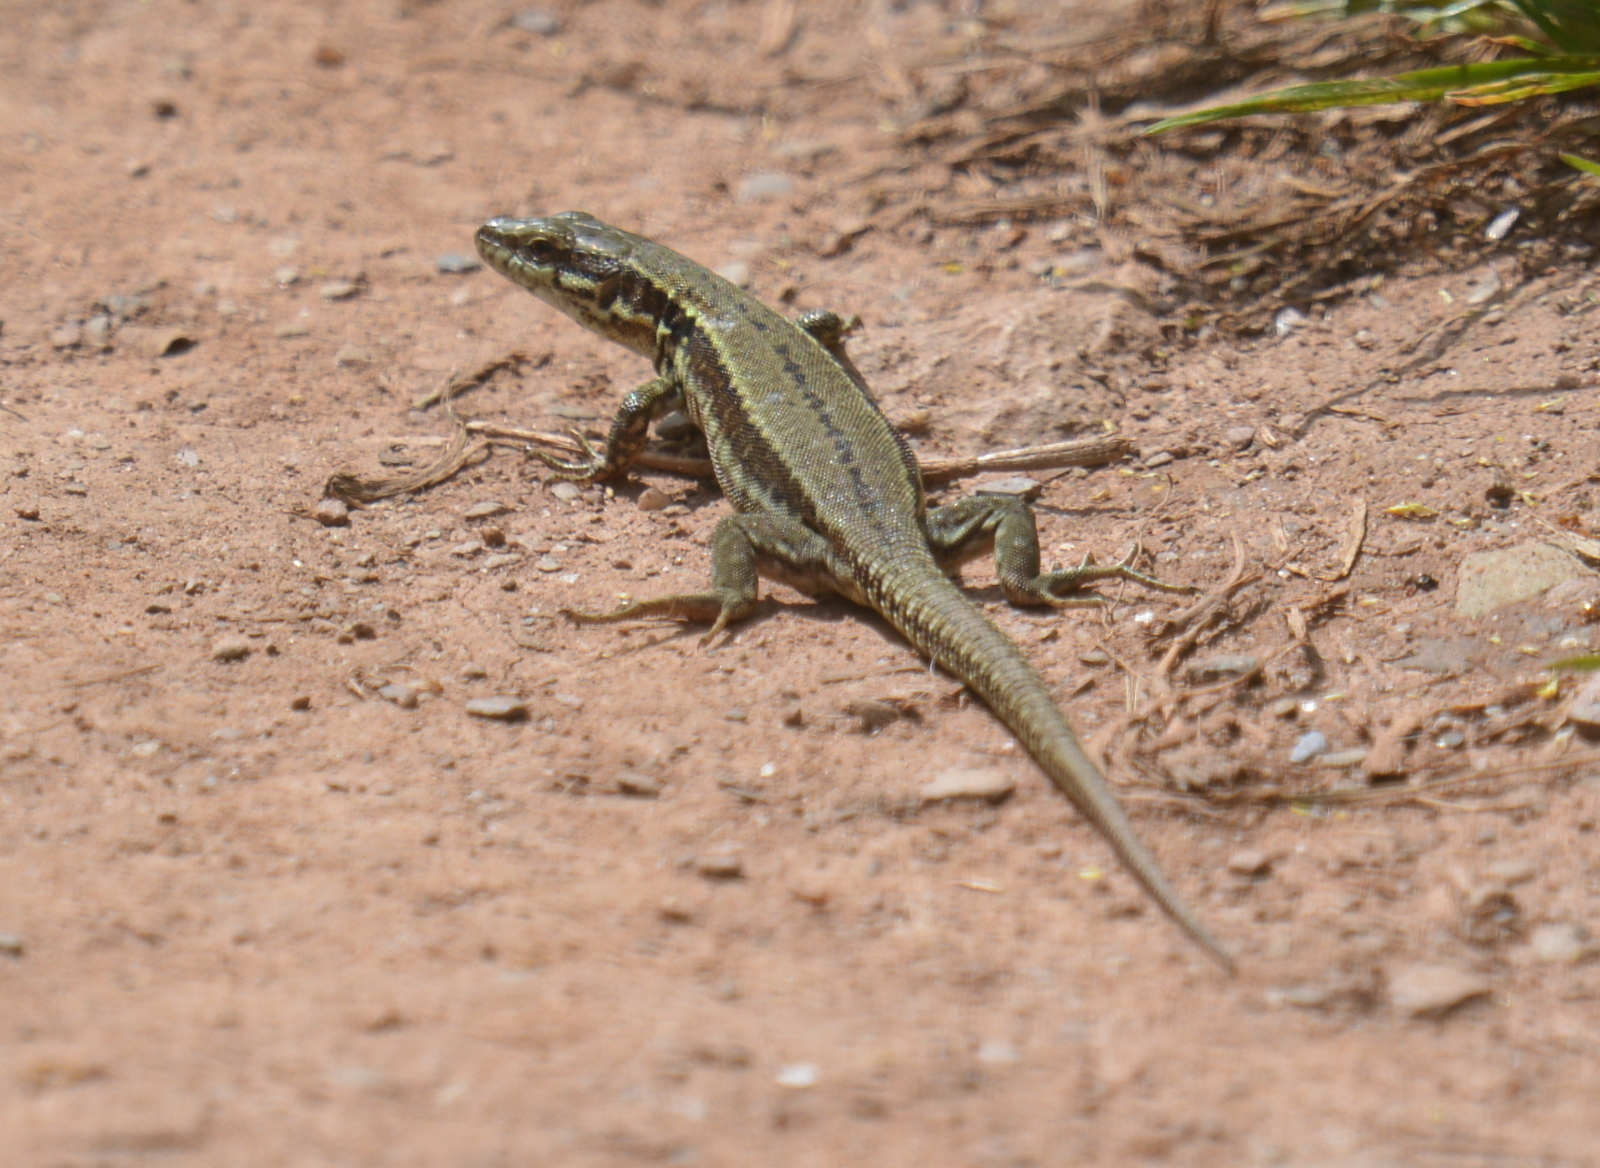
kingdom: Animalia
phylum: Chordata
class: Squamata
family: Lacertidae
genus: Podarcis
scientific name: Podarcis muralis
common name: Common wall lizard
